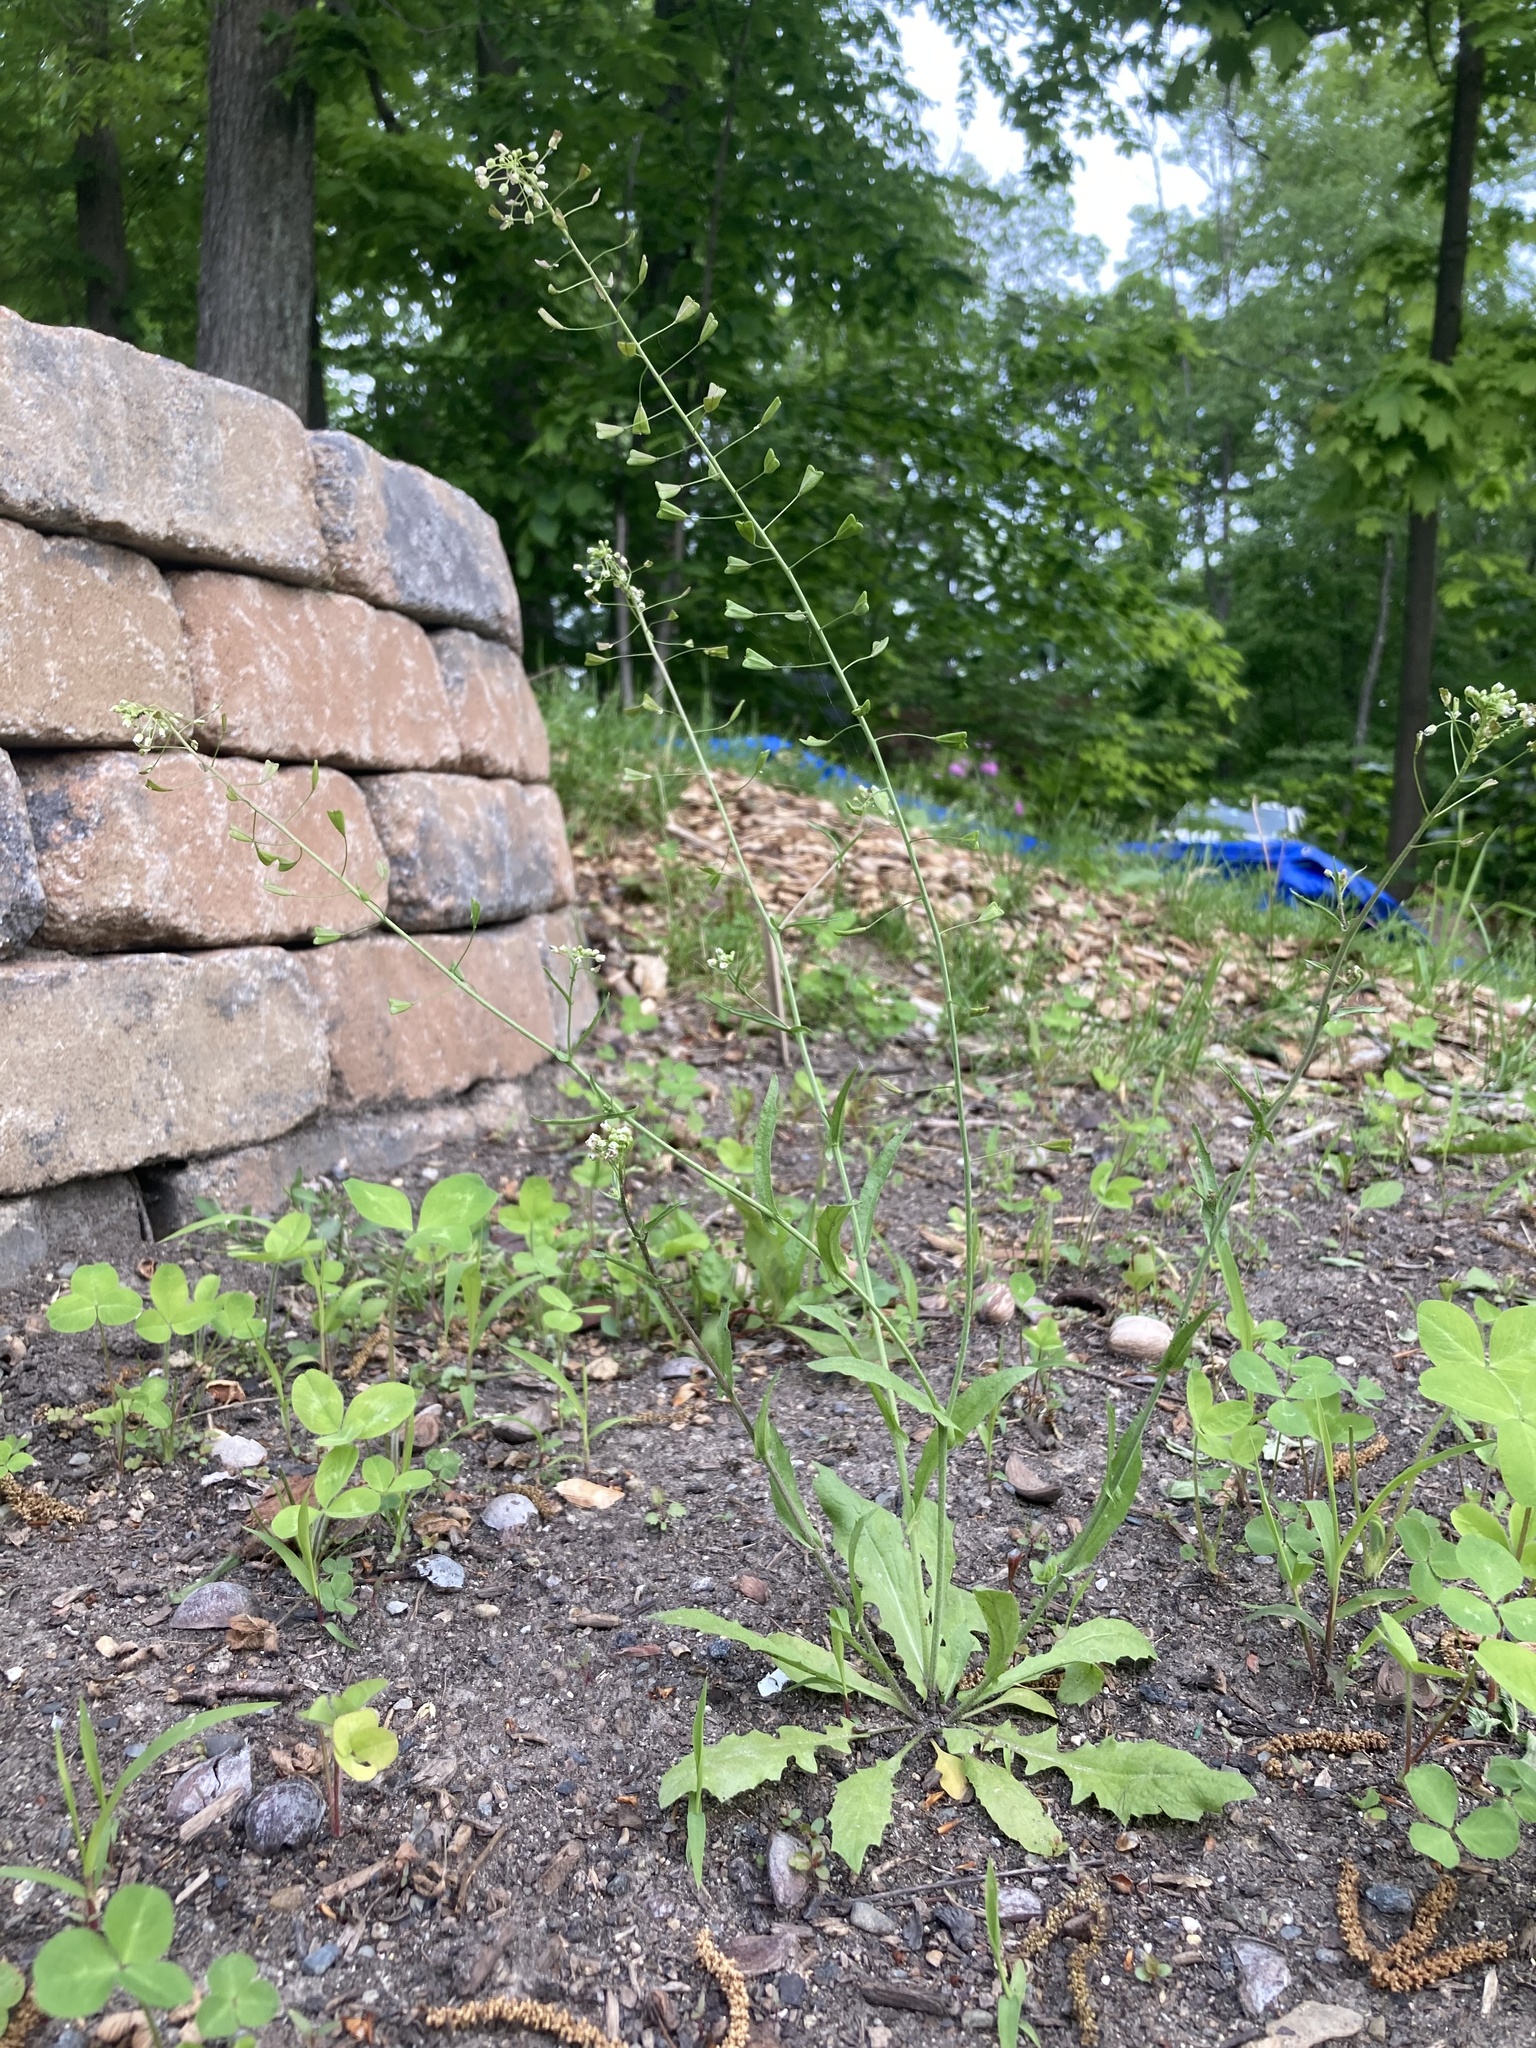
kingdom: Plantae
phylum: Tracheophyta
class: Magnoliopsida
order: Brassicales
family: Brassicaceae
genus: Capsella
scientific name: Capsella bursa-pastoris
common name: Shepherd's purse
